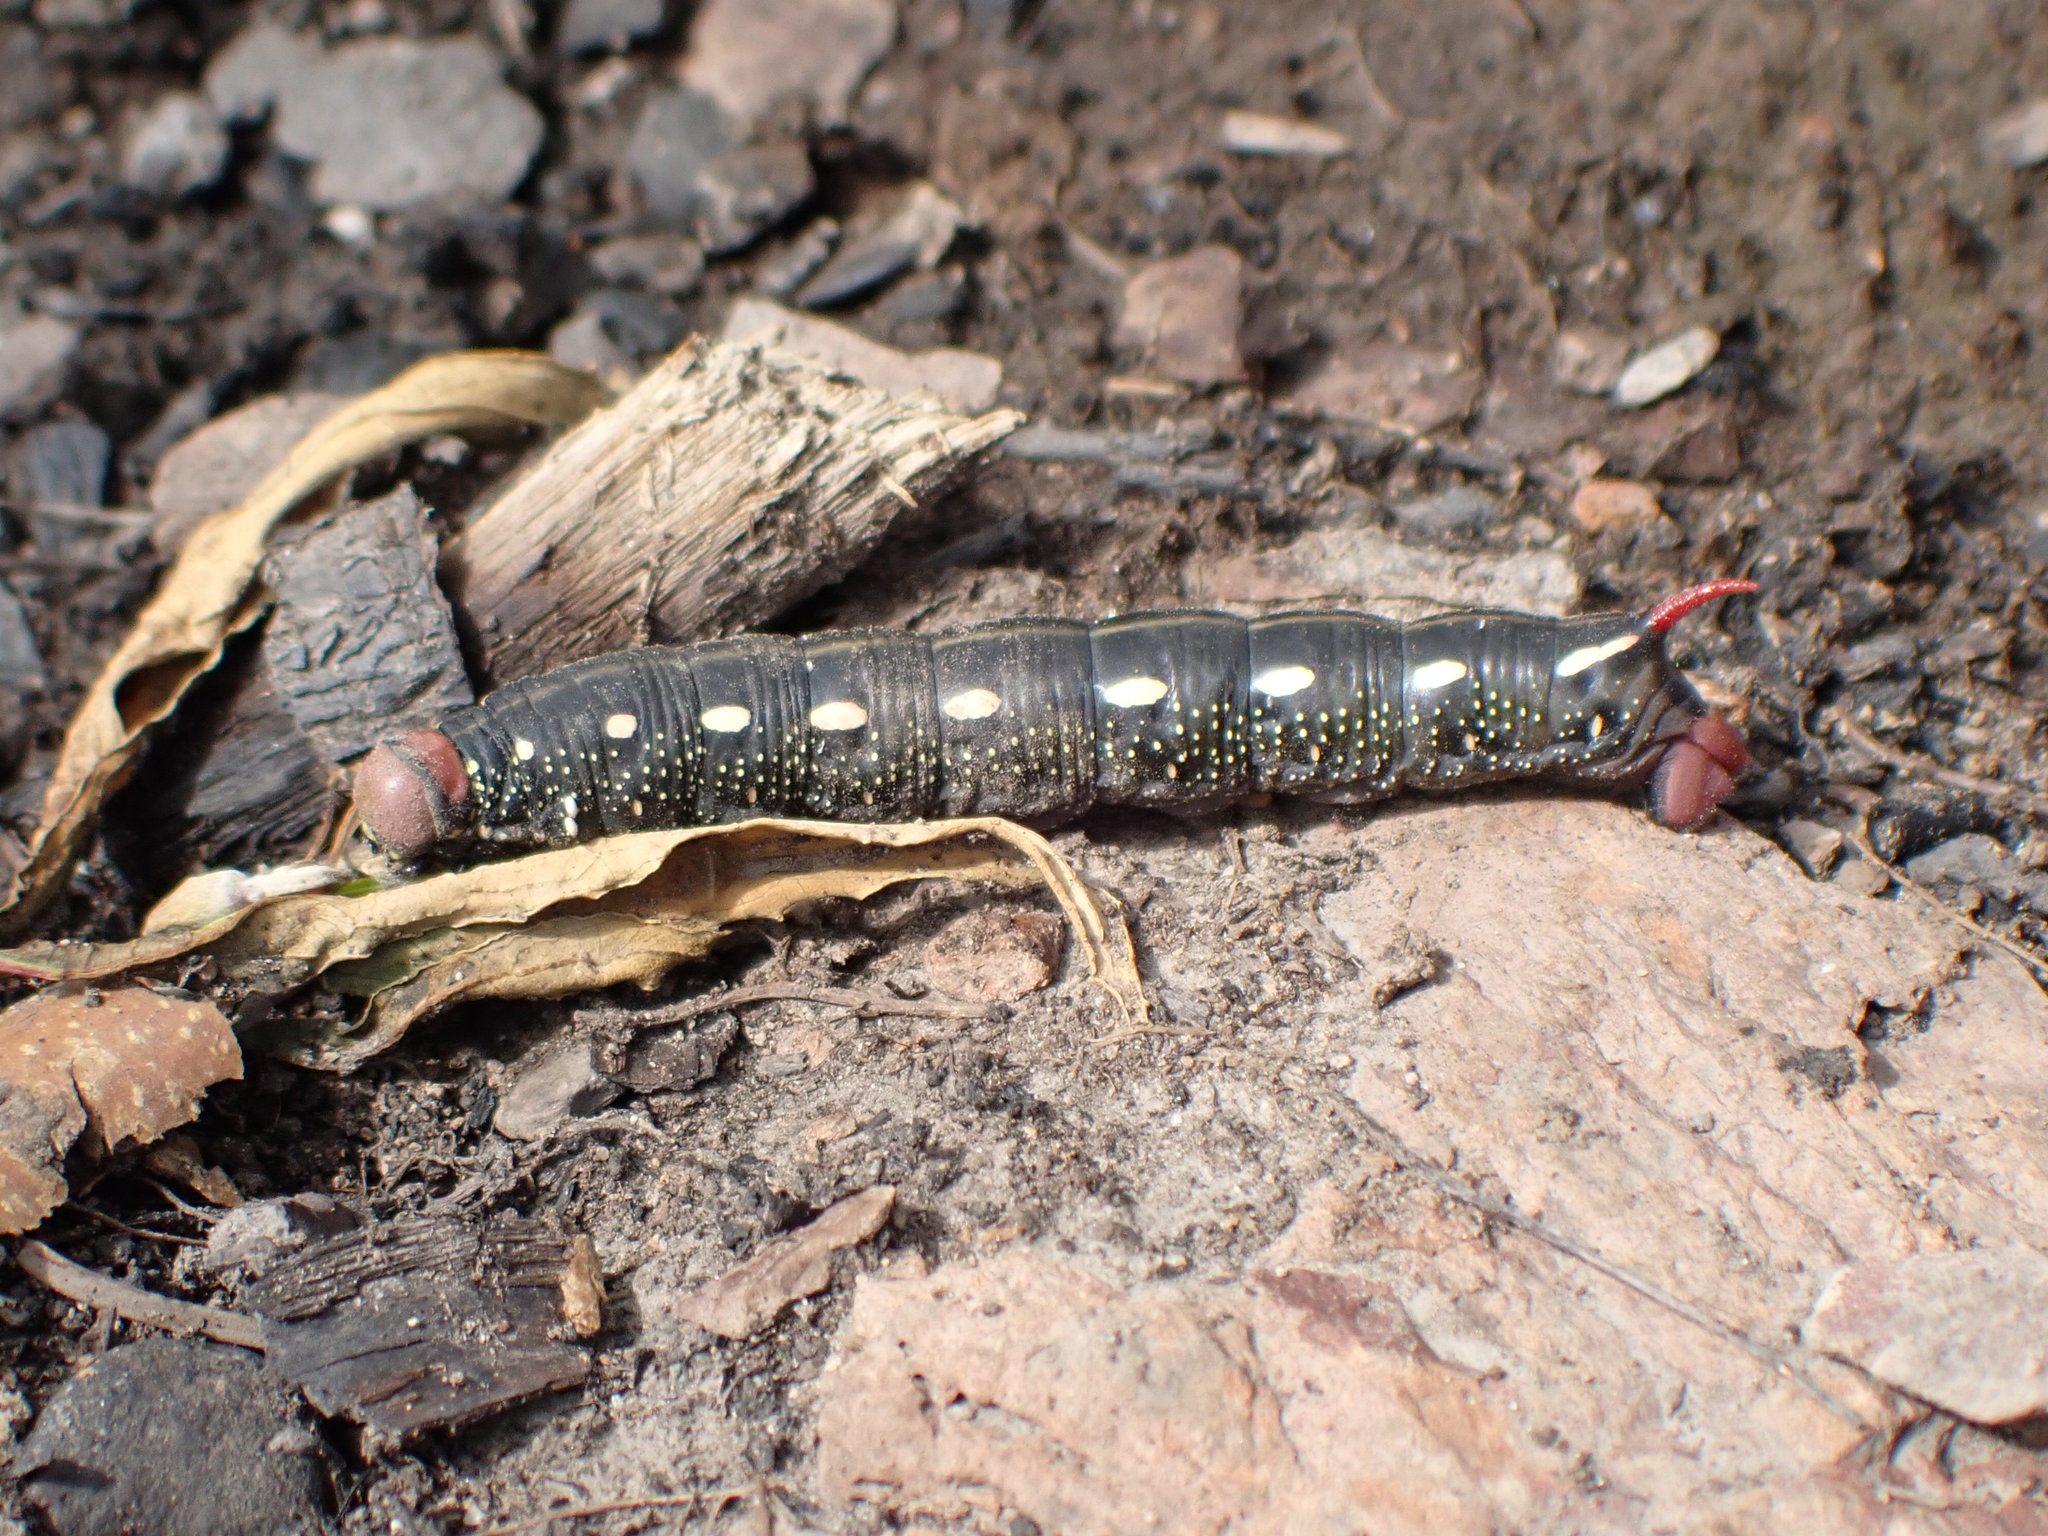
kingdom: Animalia
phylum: Arthropoda
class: Insecta
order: Lepidoptera
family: Sphingidae
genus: Hyles
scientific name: Hyles gallii
